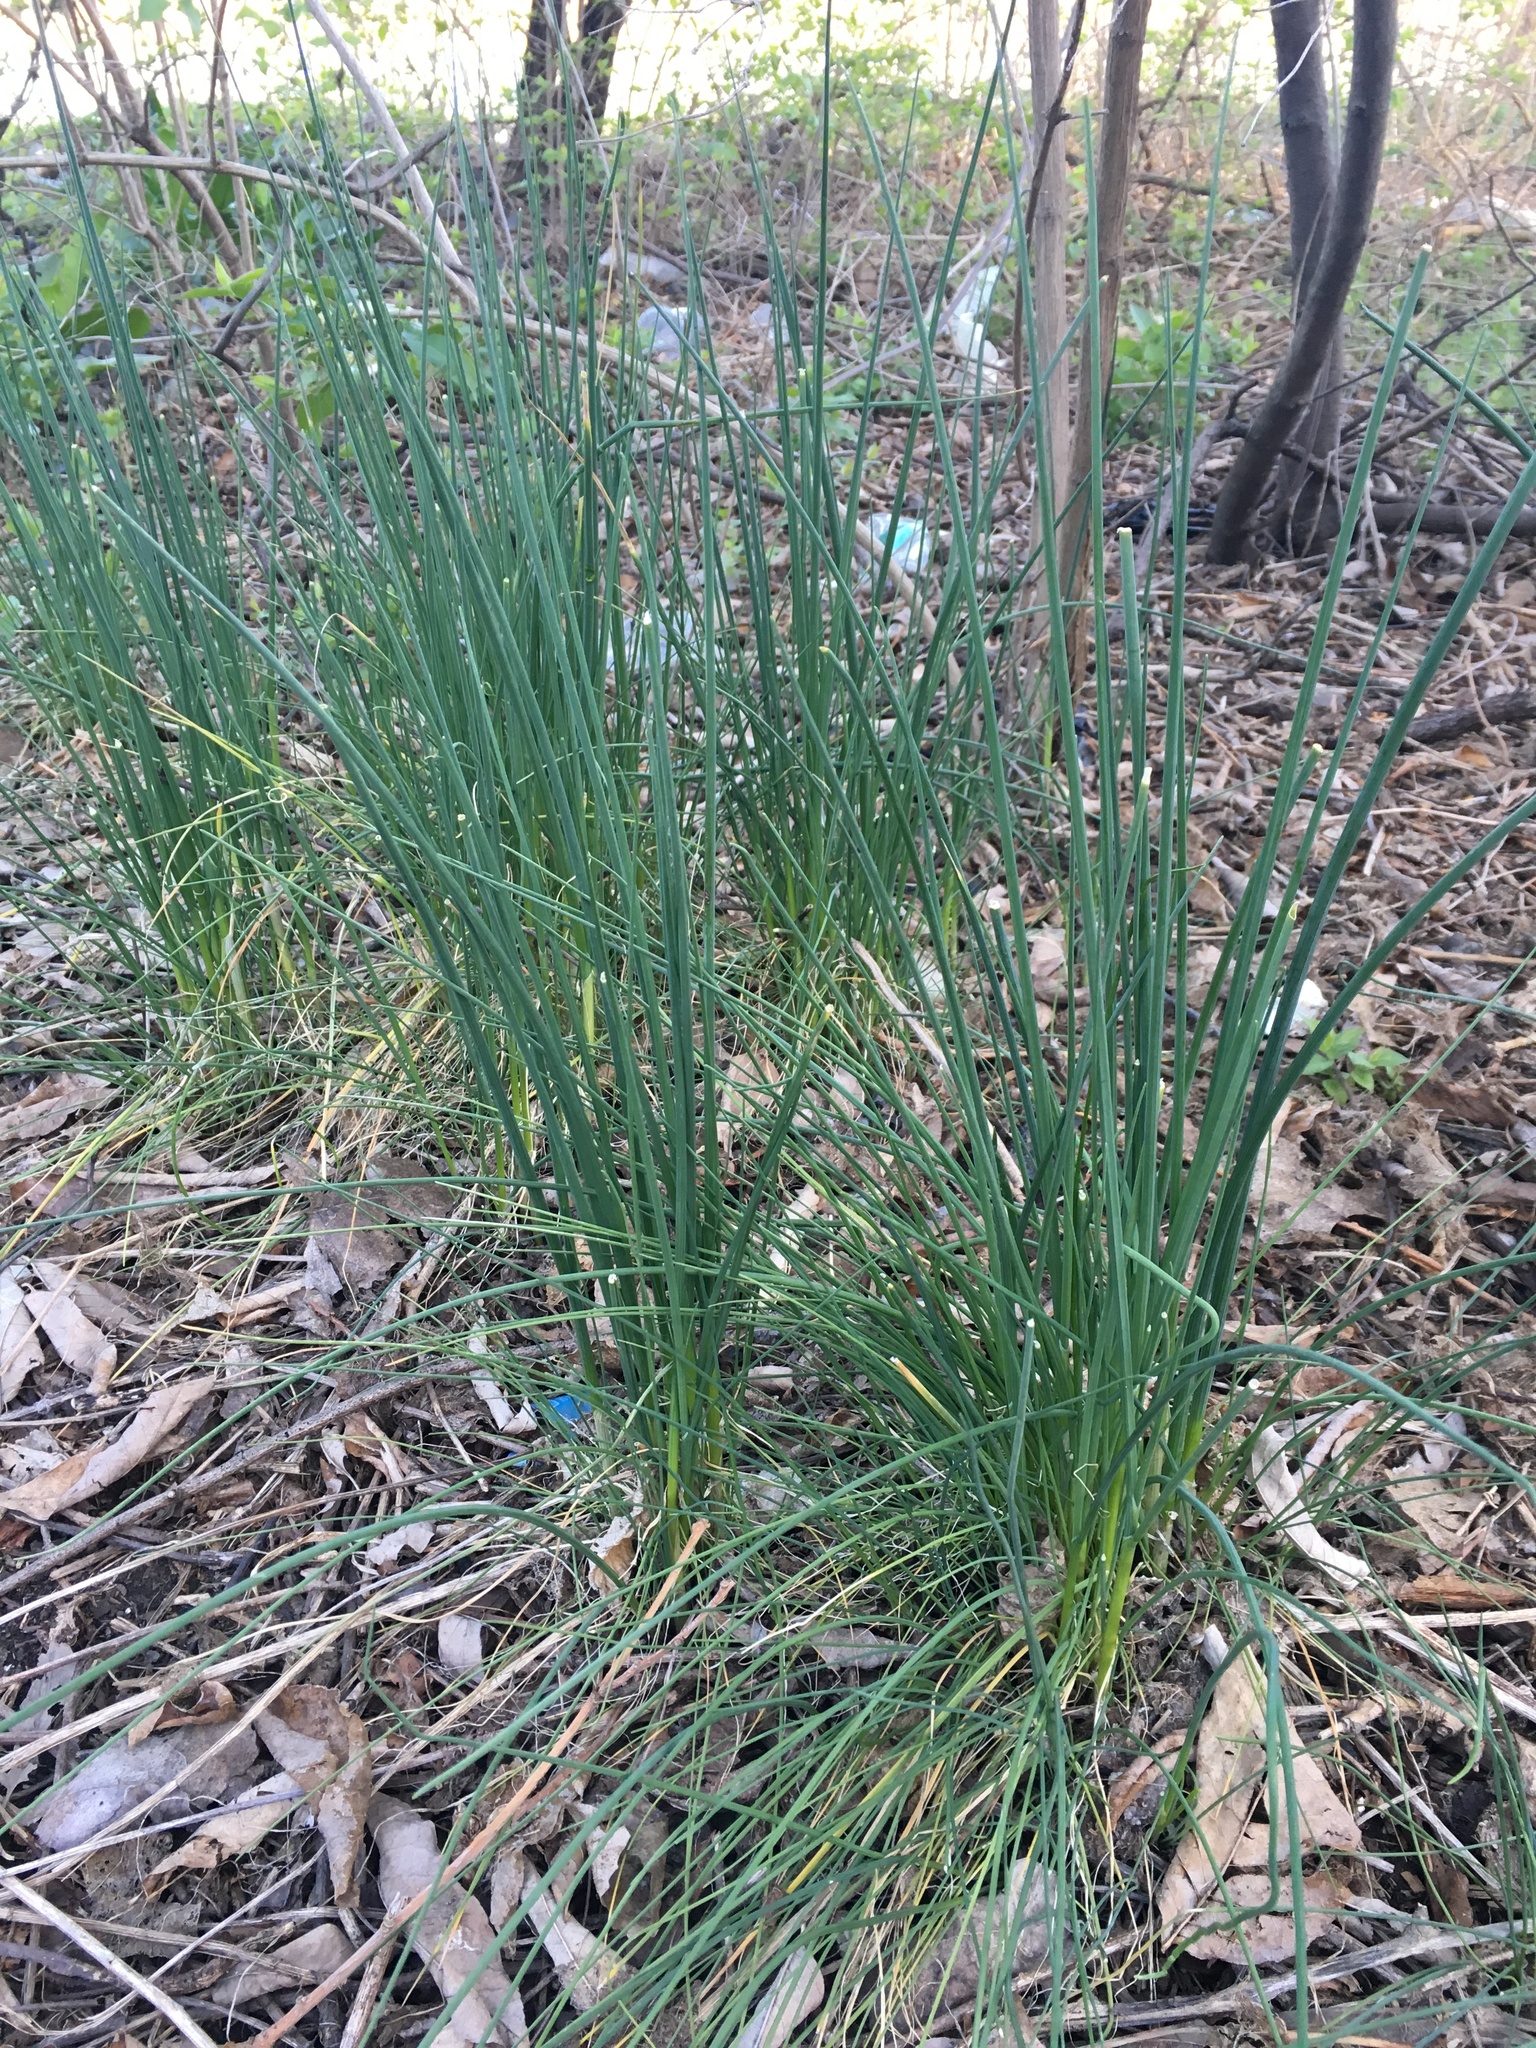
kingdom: Plantae
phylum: Tracheophyta
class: Liliopsida
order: Asparagales
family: Amaryllidaceae
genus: Allium
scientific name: Allium vineale
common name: Crow garlic
